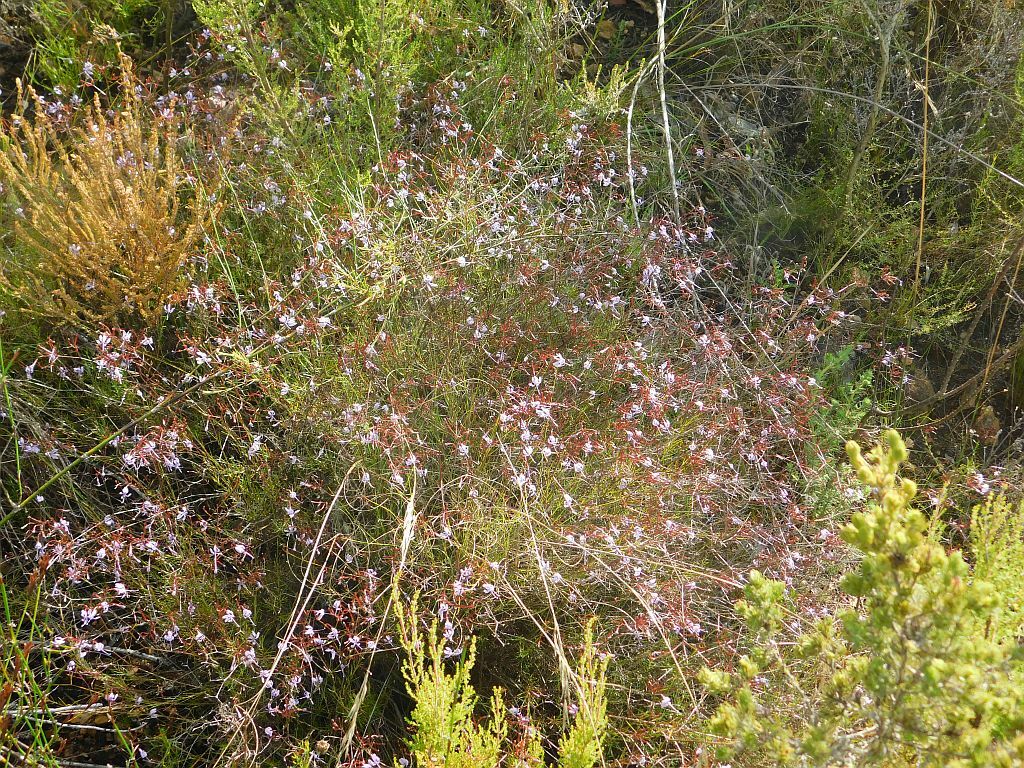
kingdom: Plantae
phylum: Tracheophyta
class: Magnoliopsida
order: Asterales
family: Campanulaceae
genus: Prismatocarpus
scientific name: Prismatocarpus diffusus
